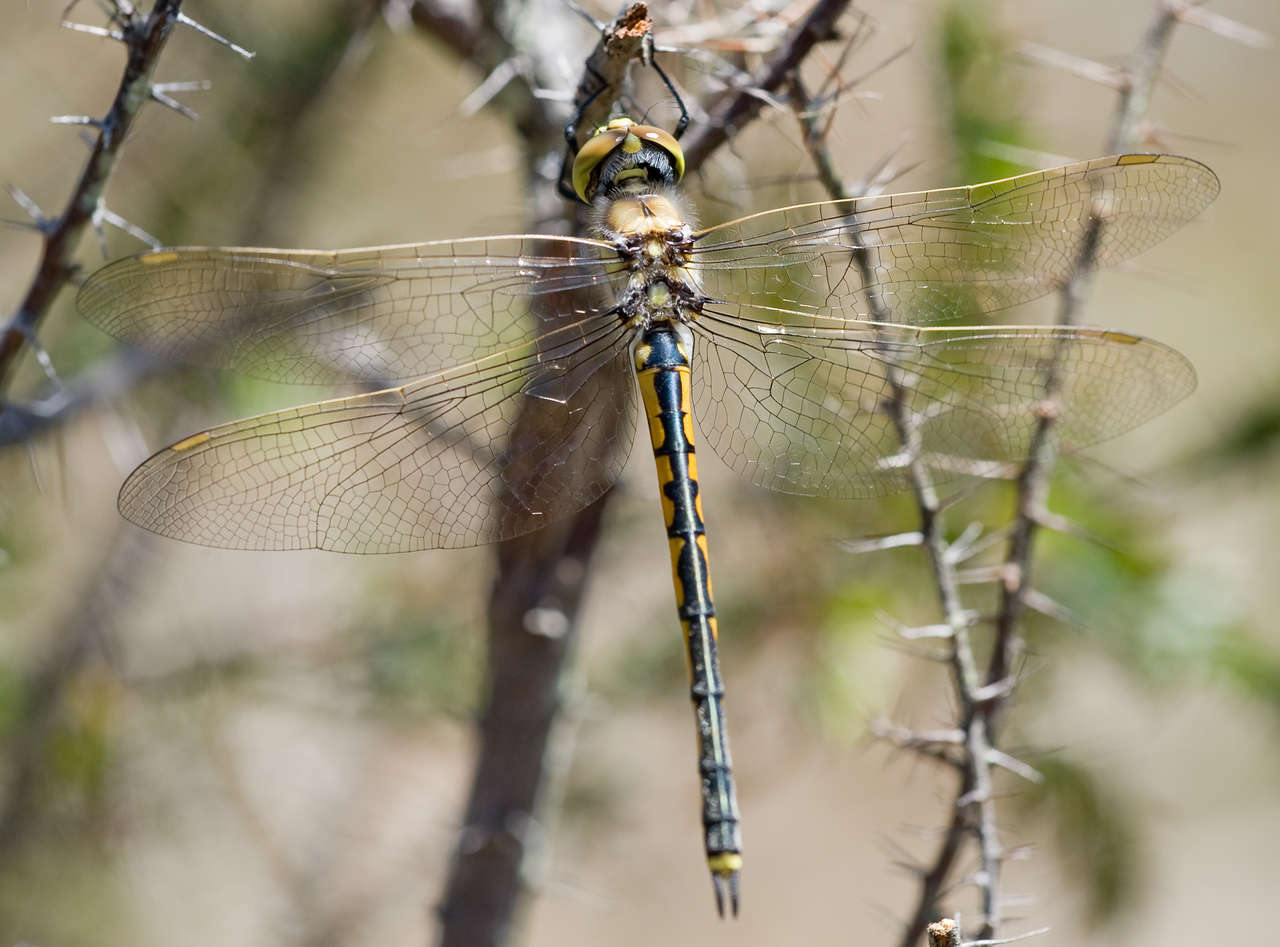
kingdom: Animalia
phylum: Arthropoda
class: Insecta
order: Odonata
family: Corduliidae
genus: Hemicordulia
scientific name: Hemicordulia tau
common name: Tau emerald
